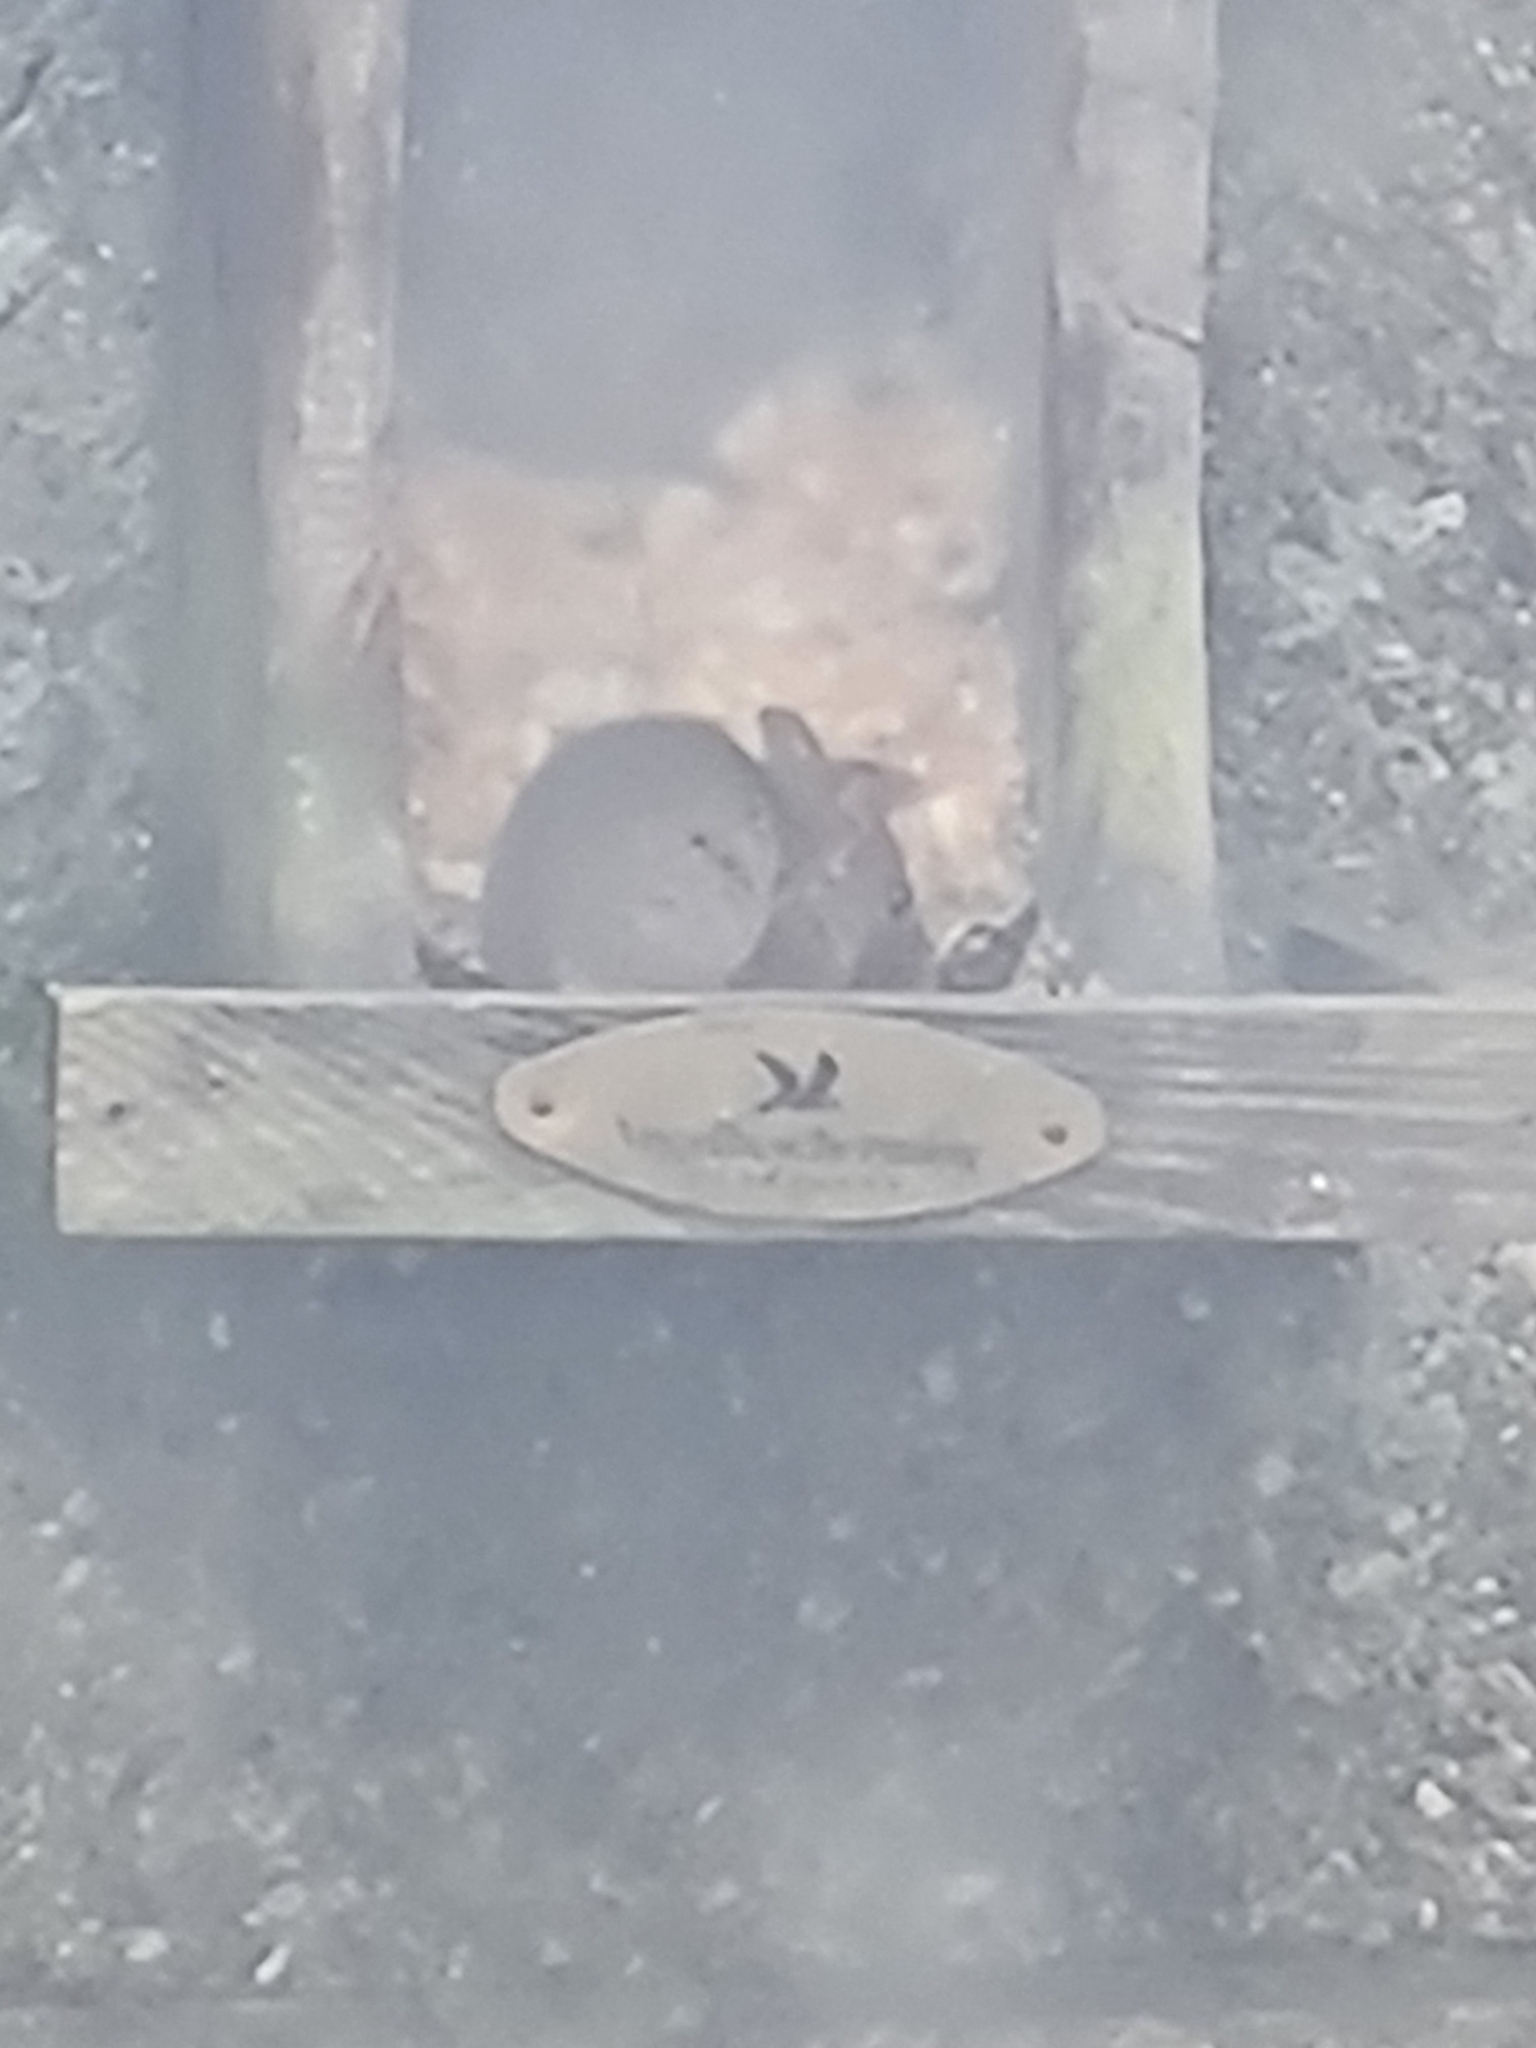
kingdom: Animalia
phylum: Chordata
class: Mammalia
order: Rodentia
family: Muridae
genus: Mus
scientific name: Mus musculus
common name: House mouse
